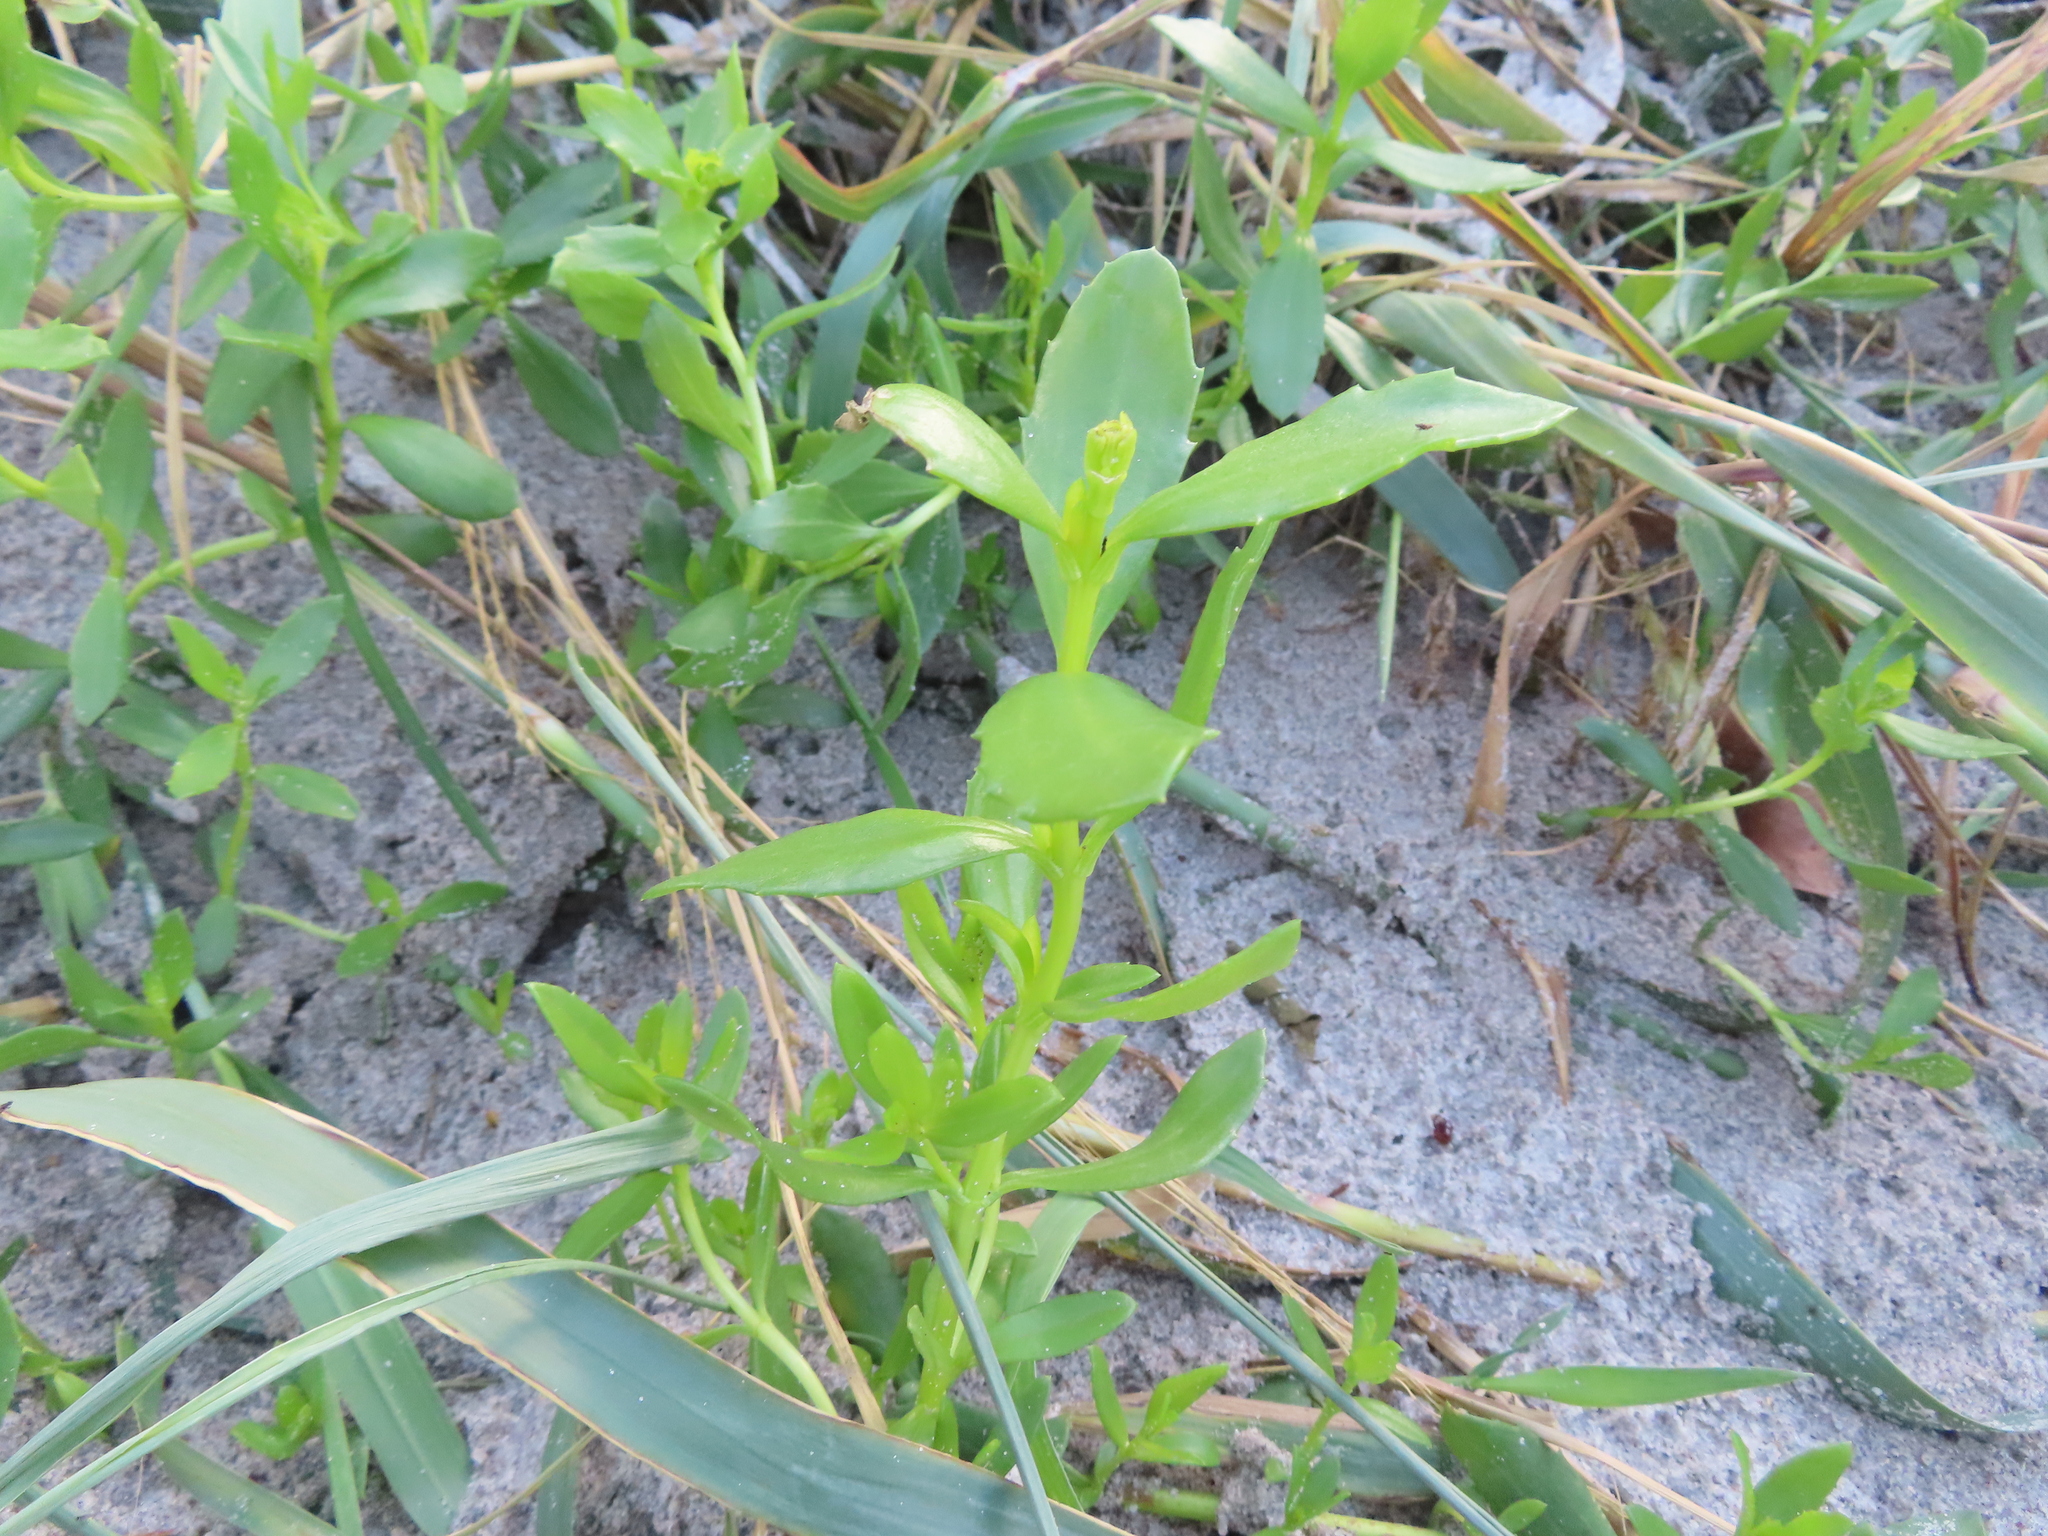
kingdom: Plantae
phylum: Tracheophyta
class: Magnoliopsida
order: Asterales
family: Asteraceae
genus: Iva
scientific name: Iva imbricata
